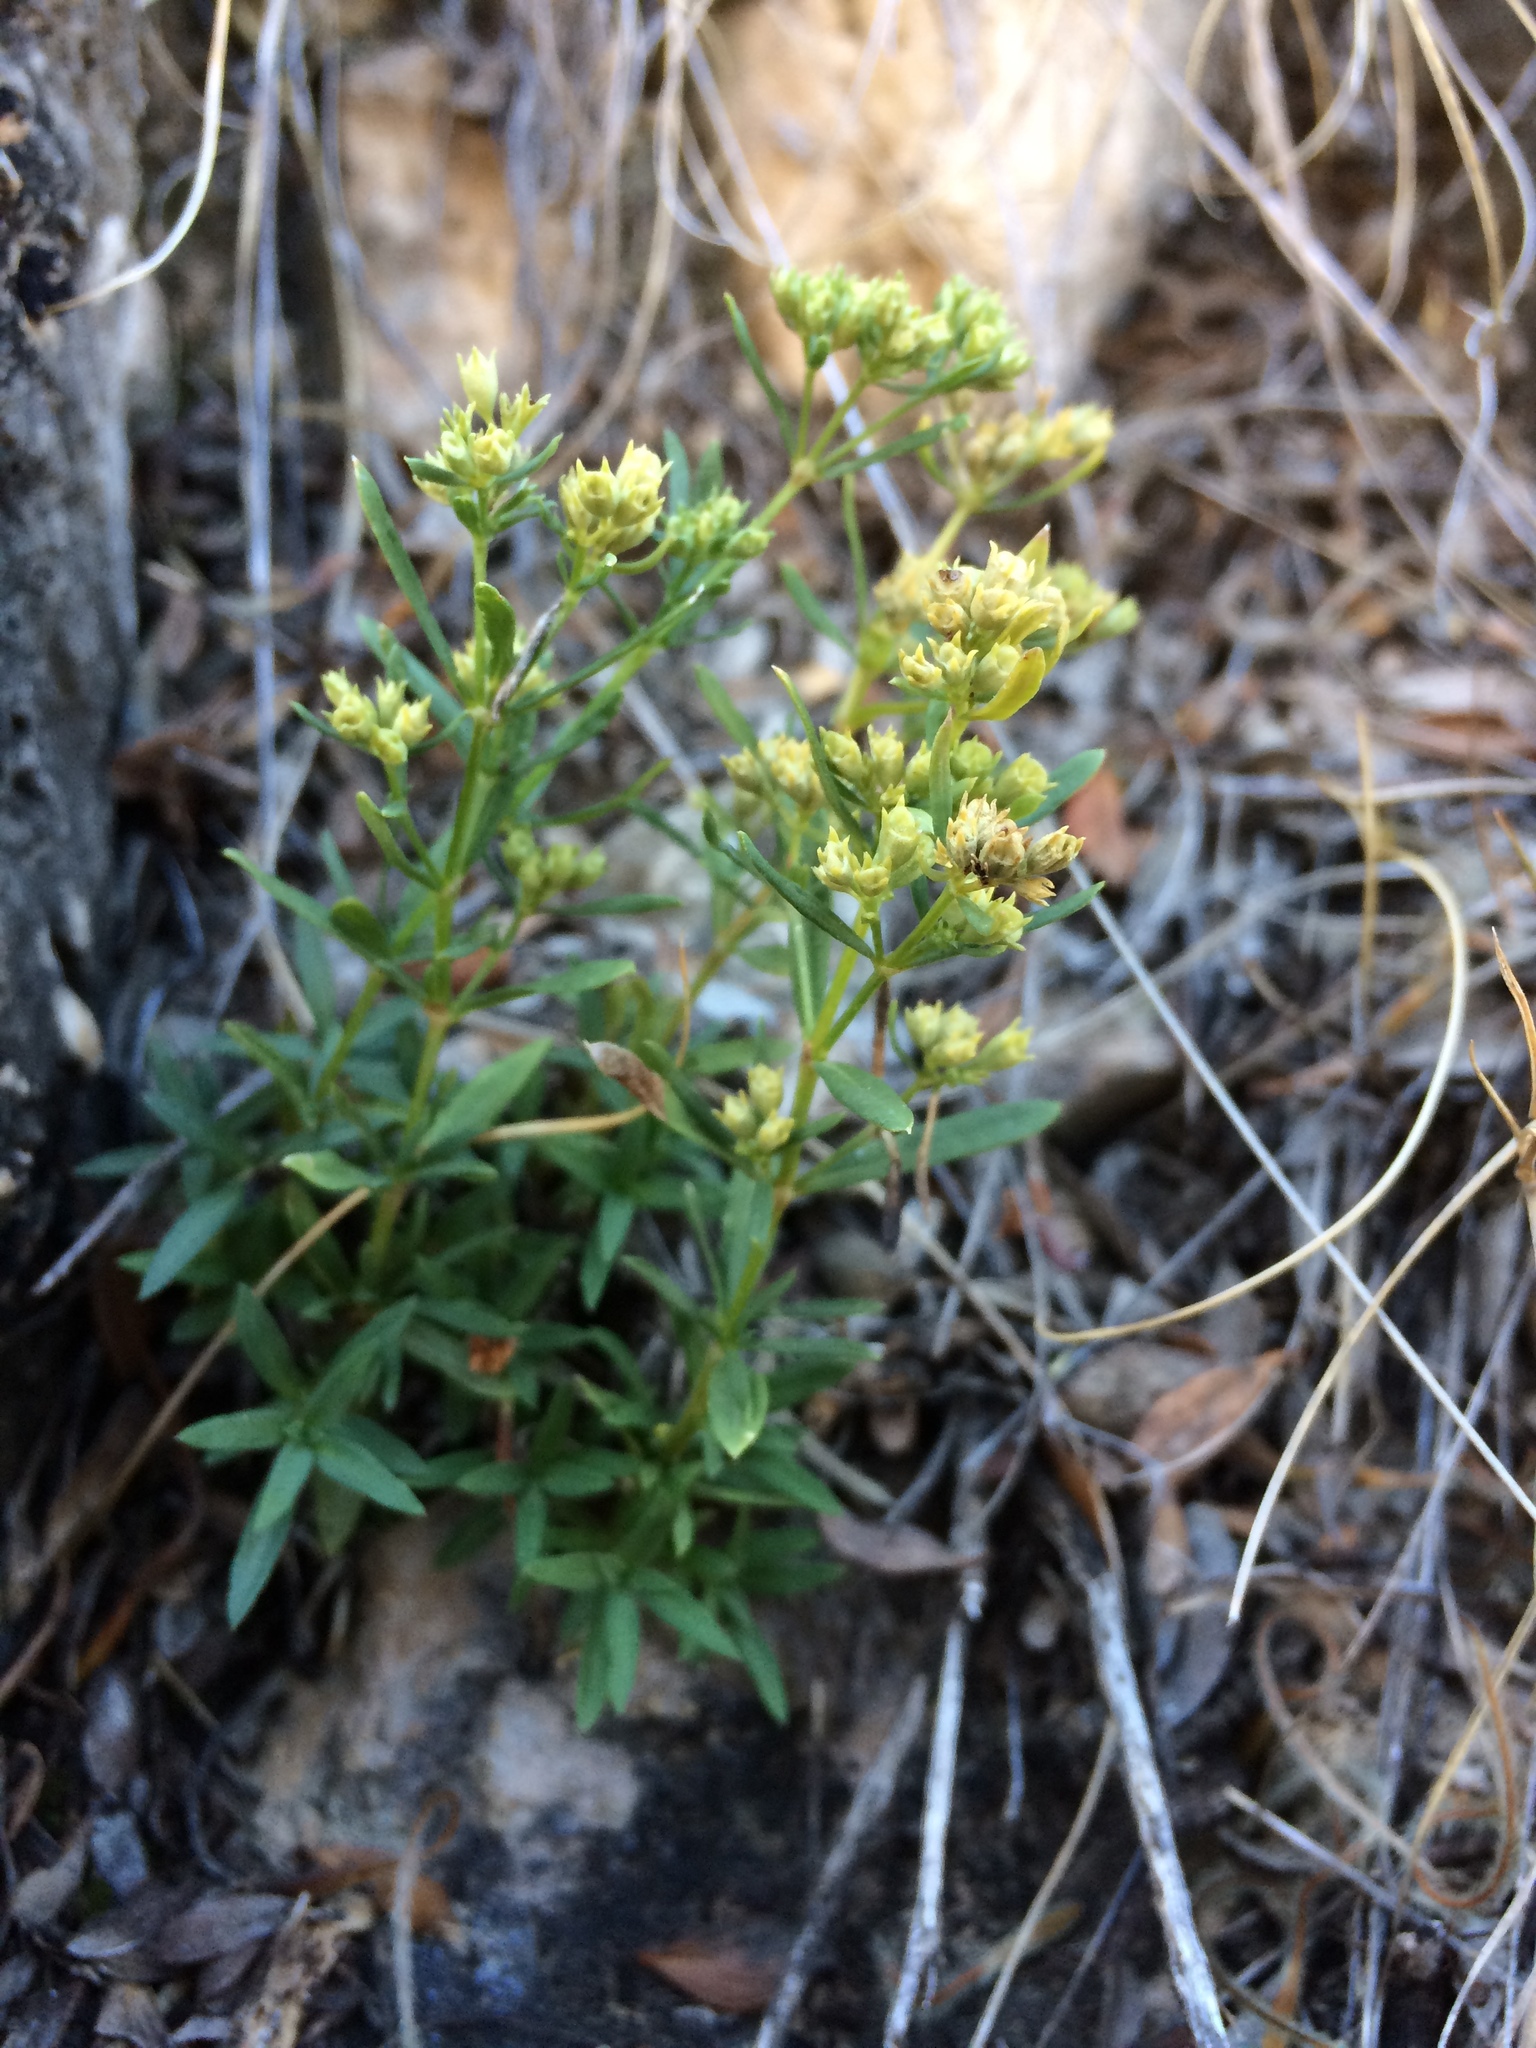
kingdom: Plantae
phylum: Tracheophyta
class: Magnoliopsida
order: Gentianales
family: Rubiaceae
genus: Stenaria
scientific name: Stenaria nigricans
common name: Diamondflowers
